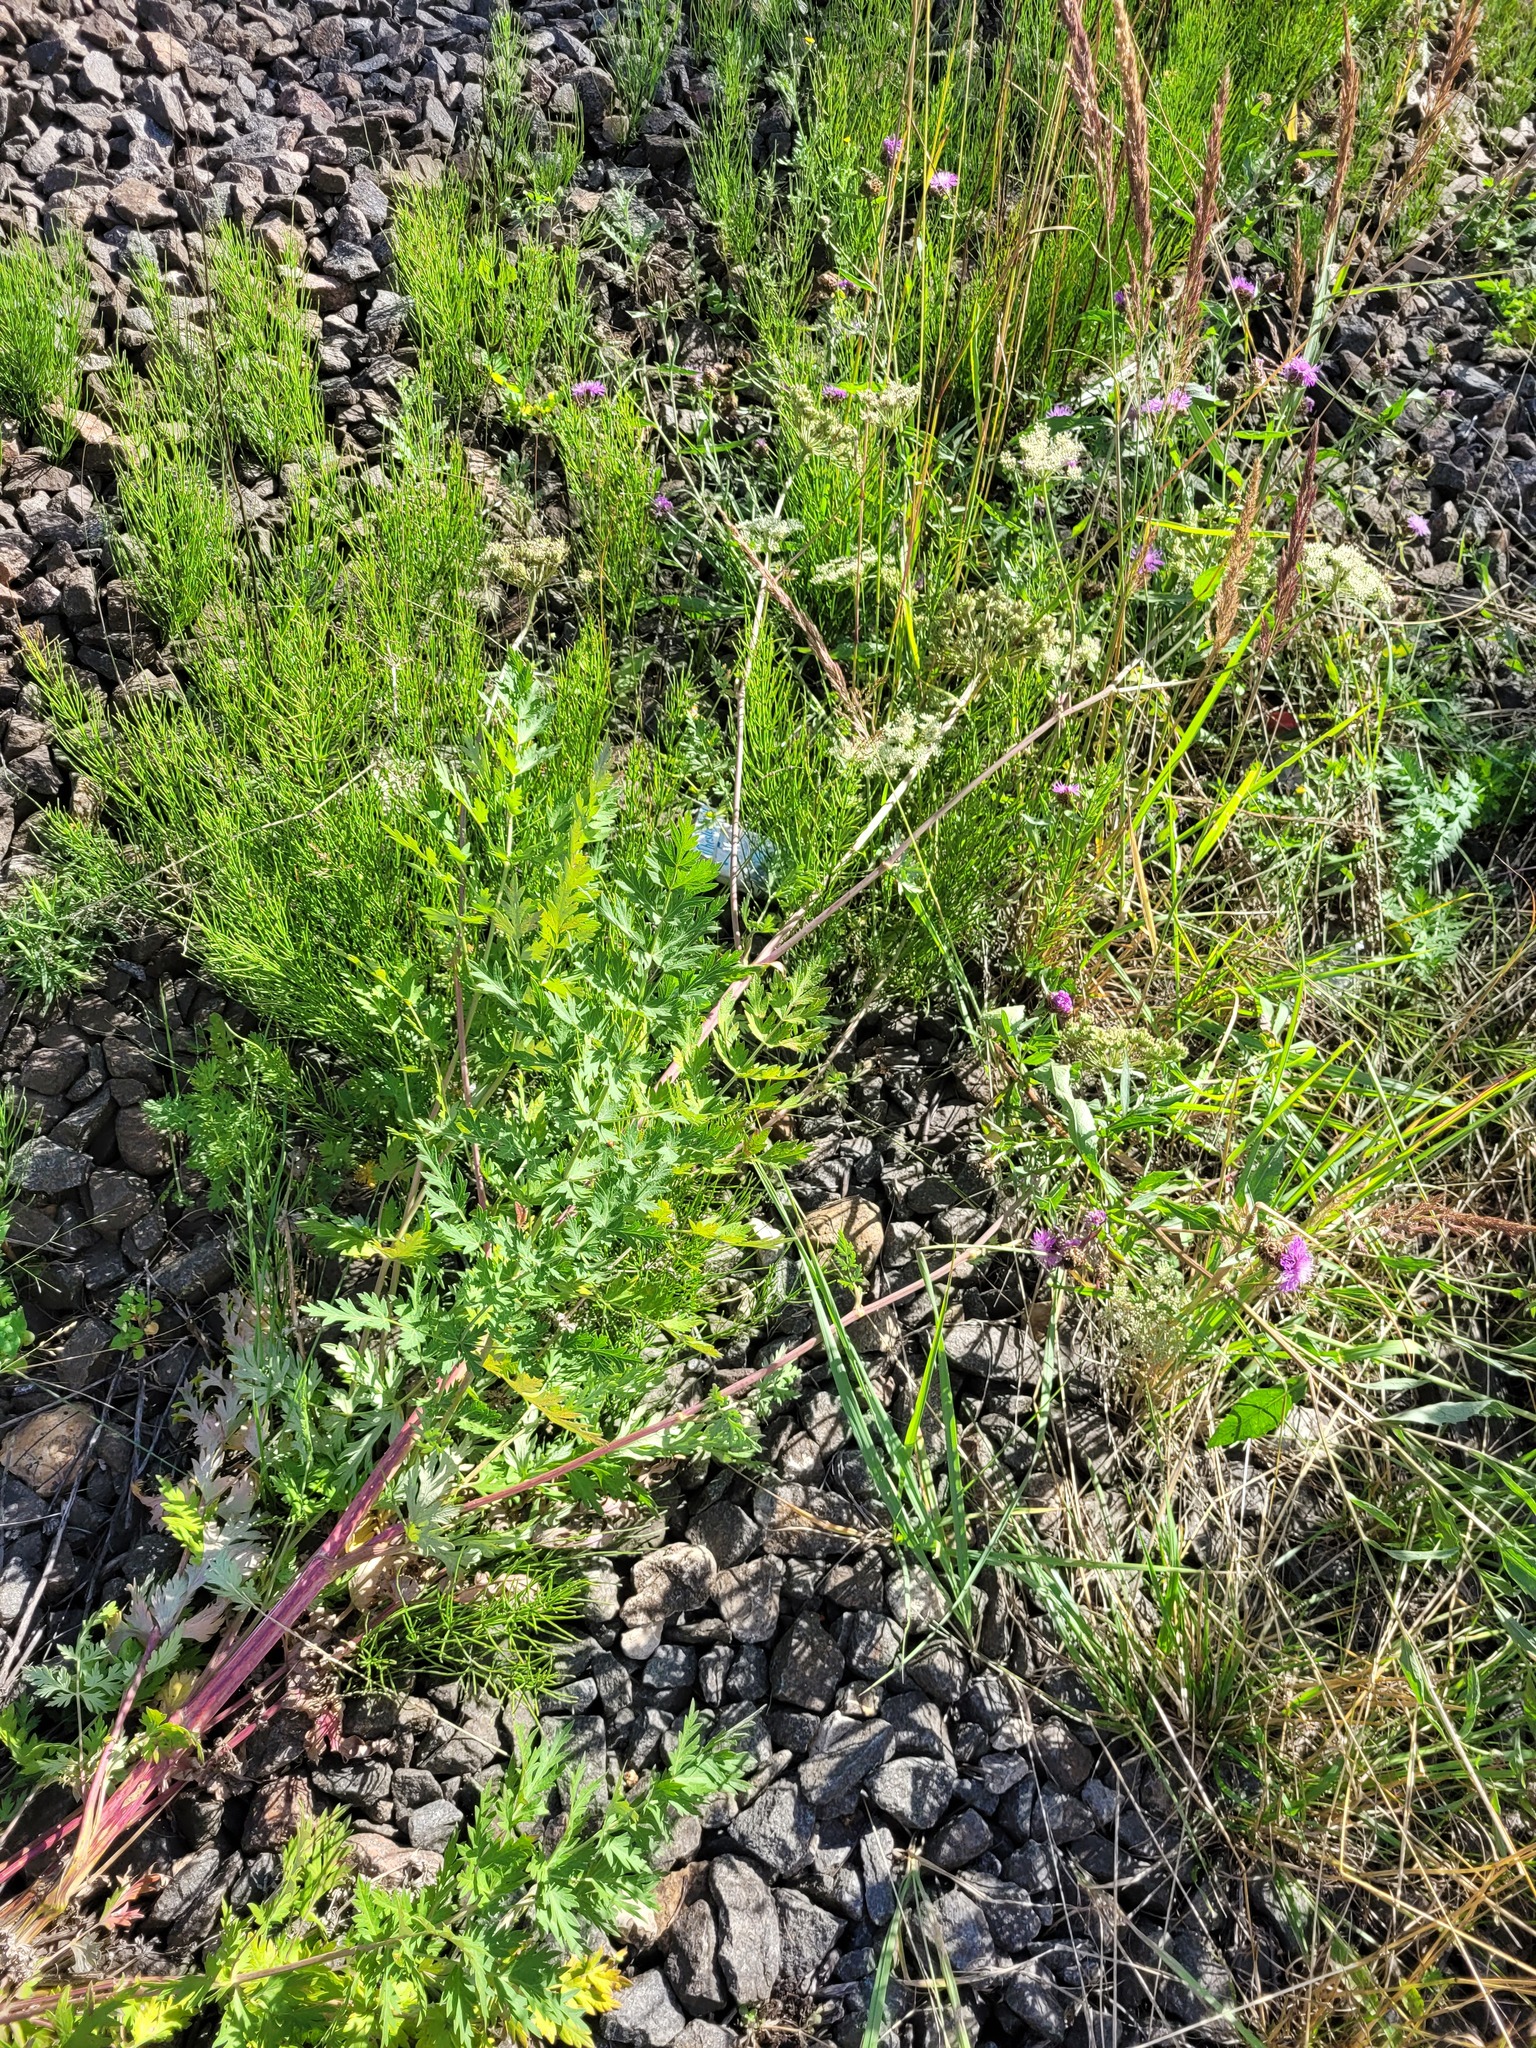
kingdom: Plantae
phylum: Tracheophyta
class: Magnoliopsida
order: Apiales
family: Apiaceae
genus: Seseli
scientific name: Seseli libanotis
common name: Mooncarrot
